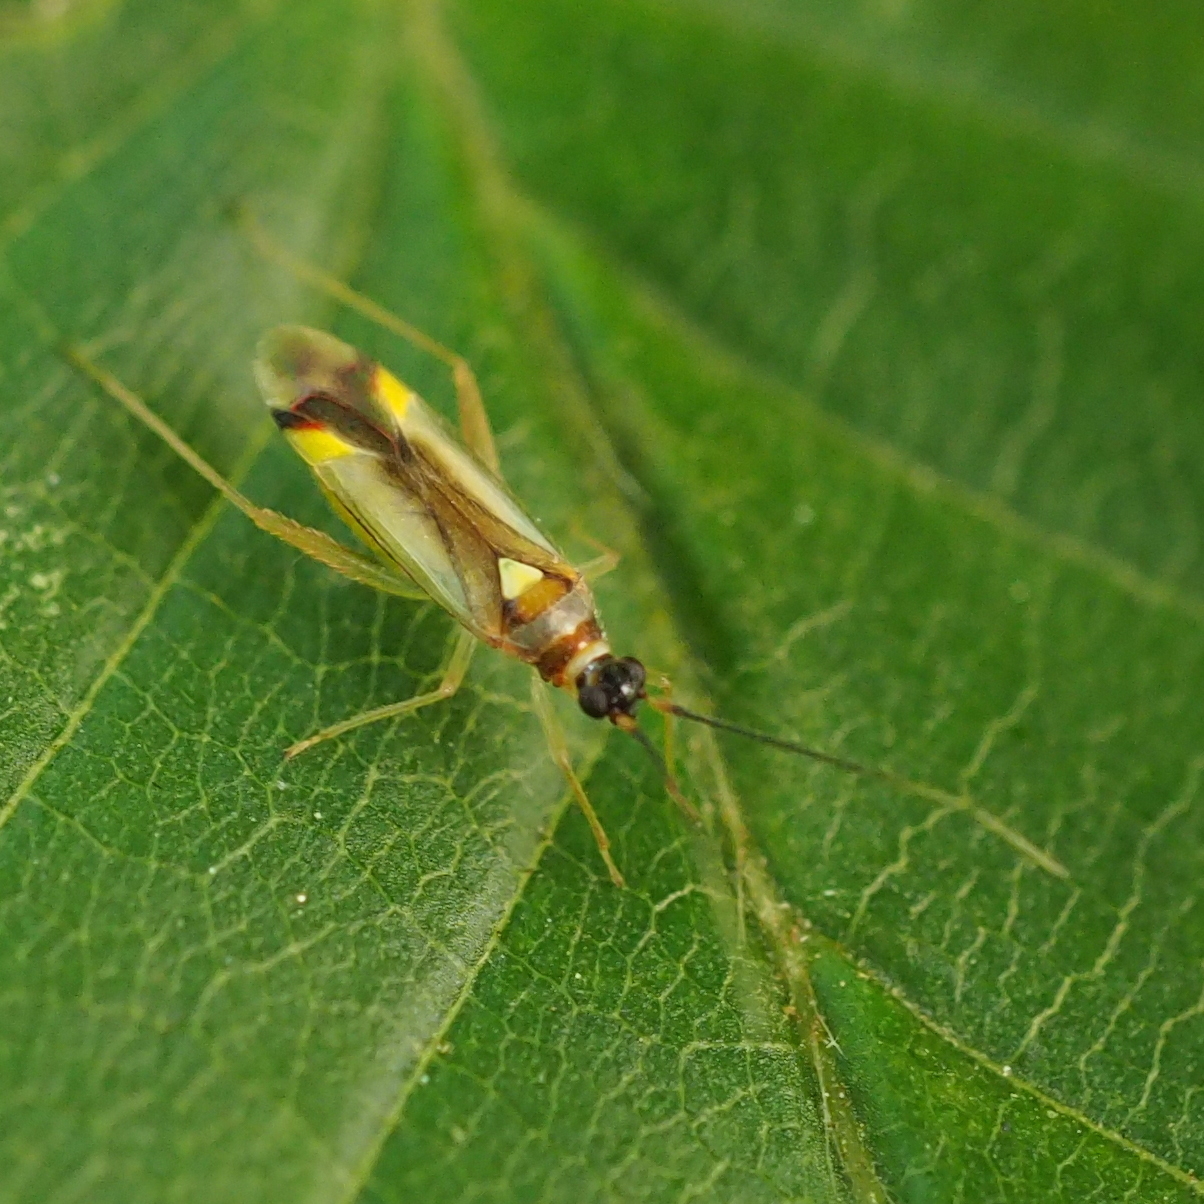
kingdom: Animalia
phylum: Arthropoda
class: Insecta
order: Hemiptera
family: Miridae
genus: Campyloneura
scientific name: Campyloneura virgula
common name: Predatory bug
